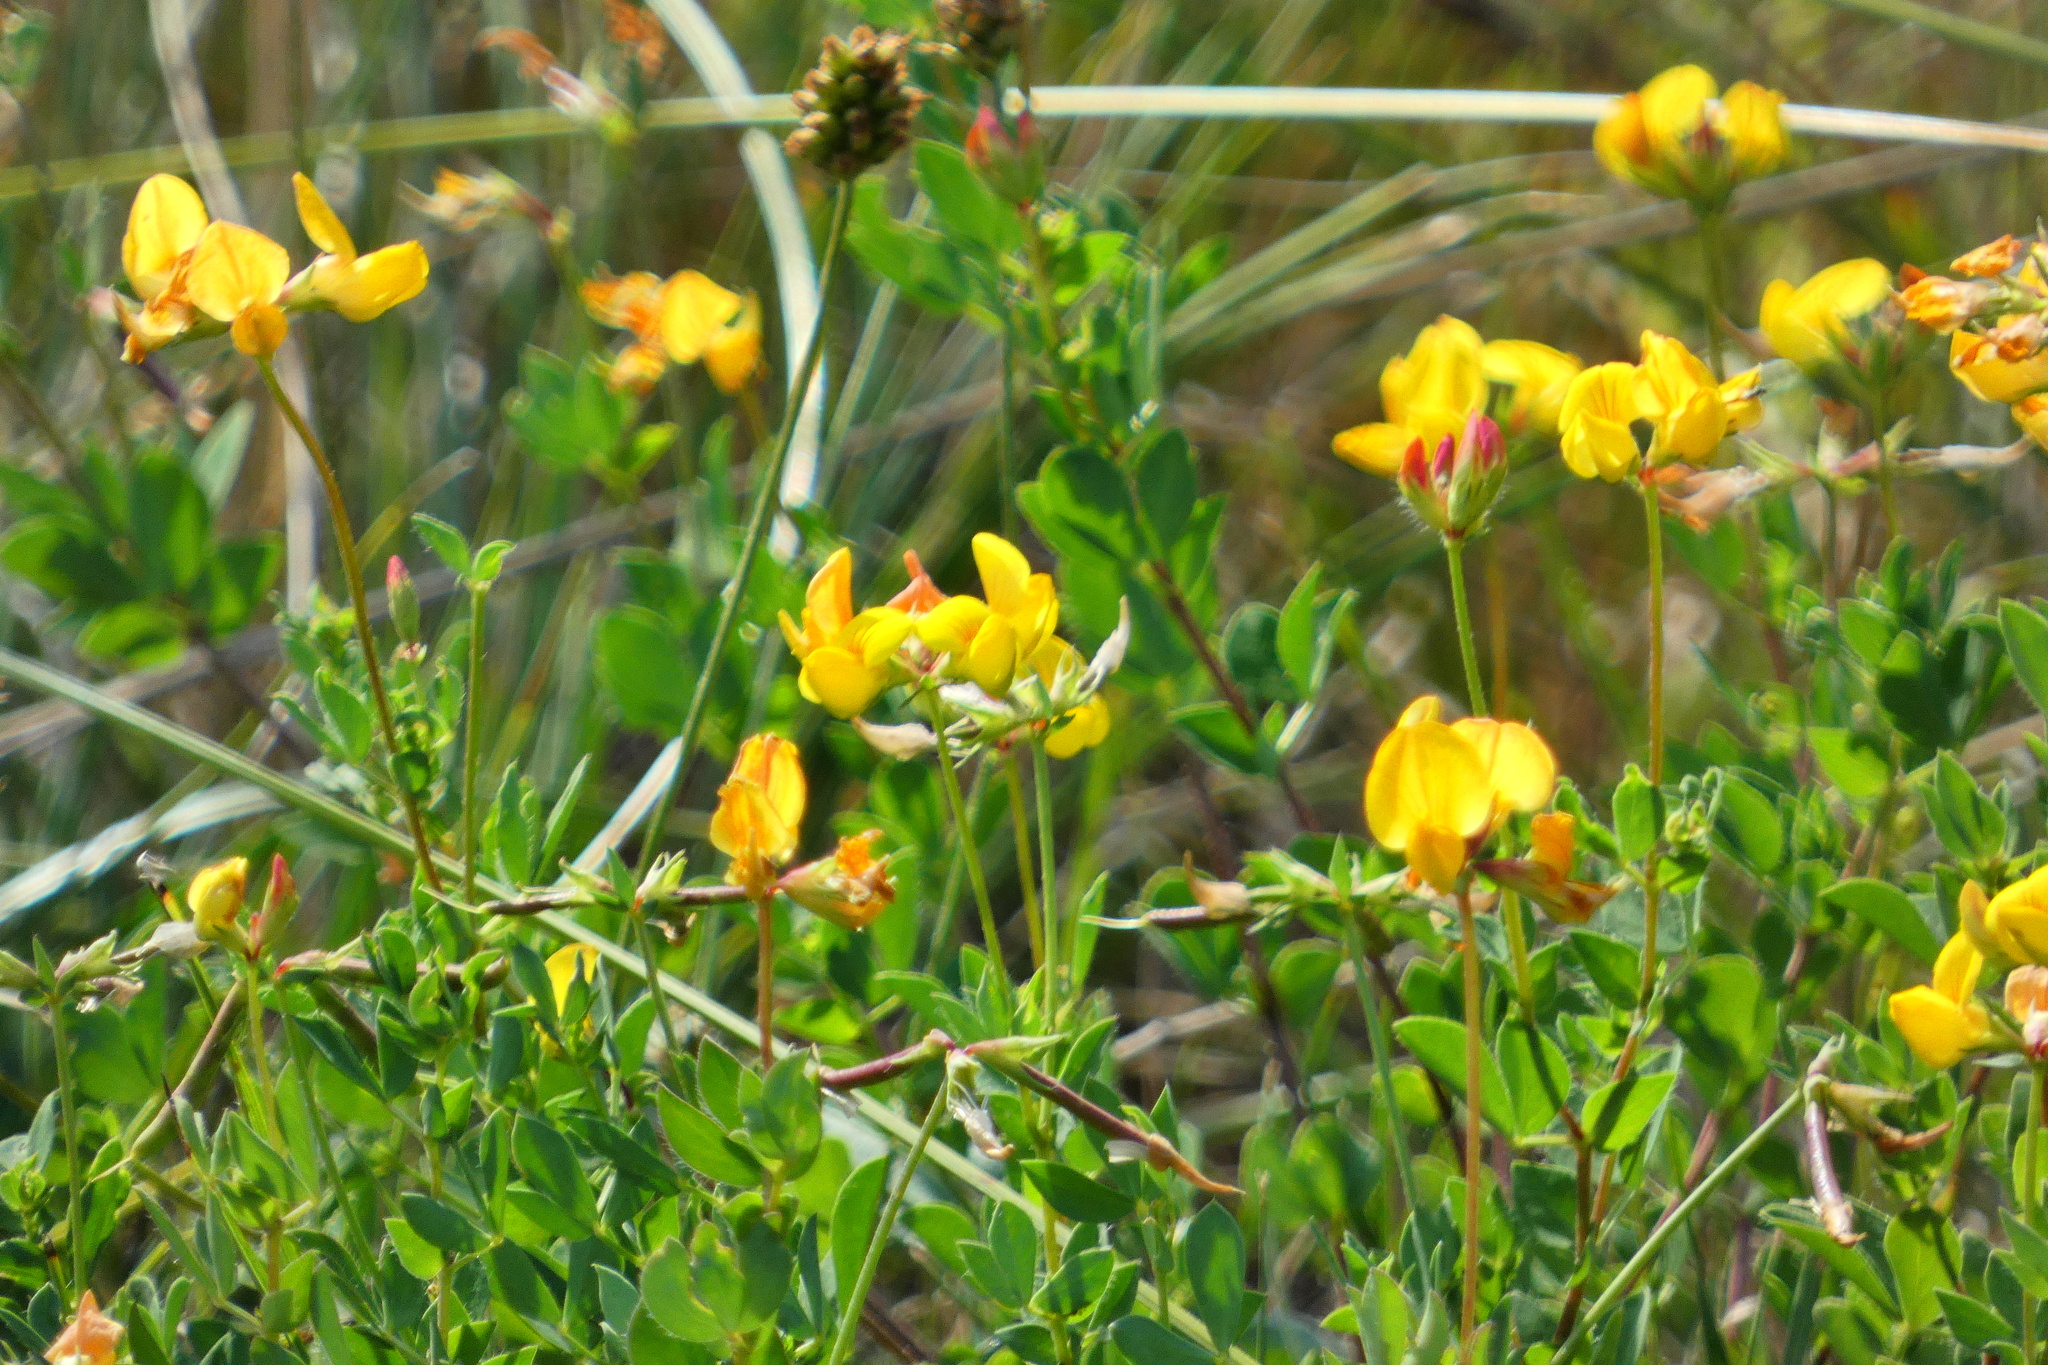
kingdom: Plantae
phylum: Tracheophyta
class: Magnoliopsida
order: Fabales
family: Fabaceae
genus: Lotus
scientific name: Lotus corniculatus
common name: Common bird's-foot-trefoil
